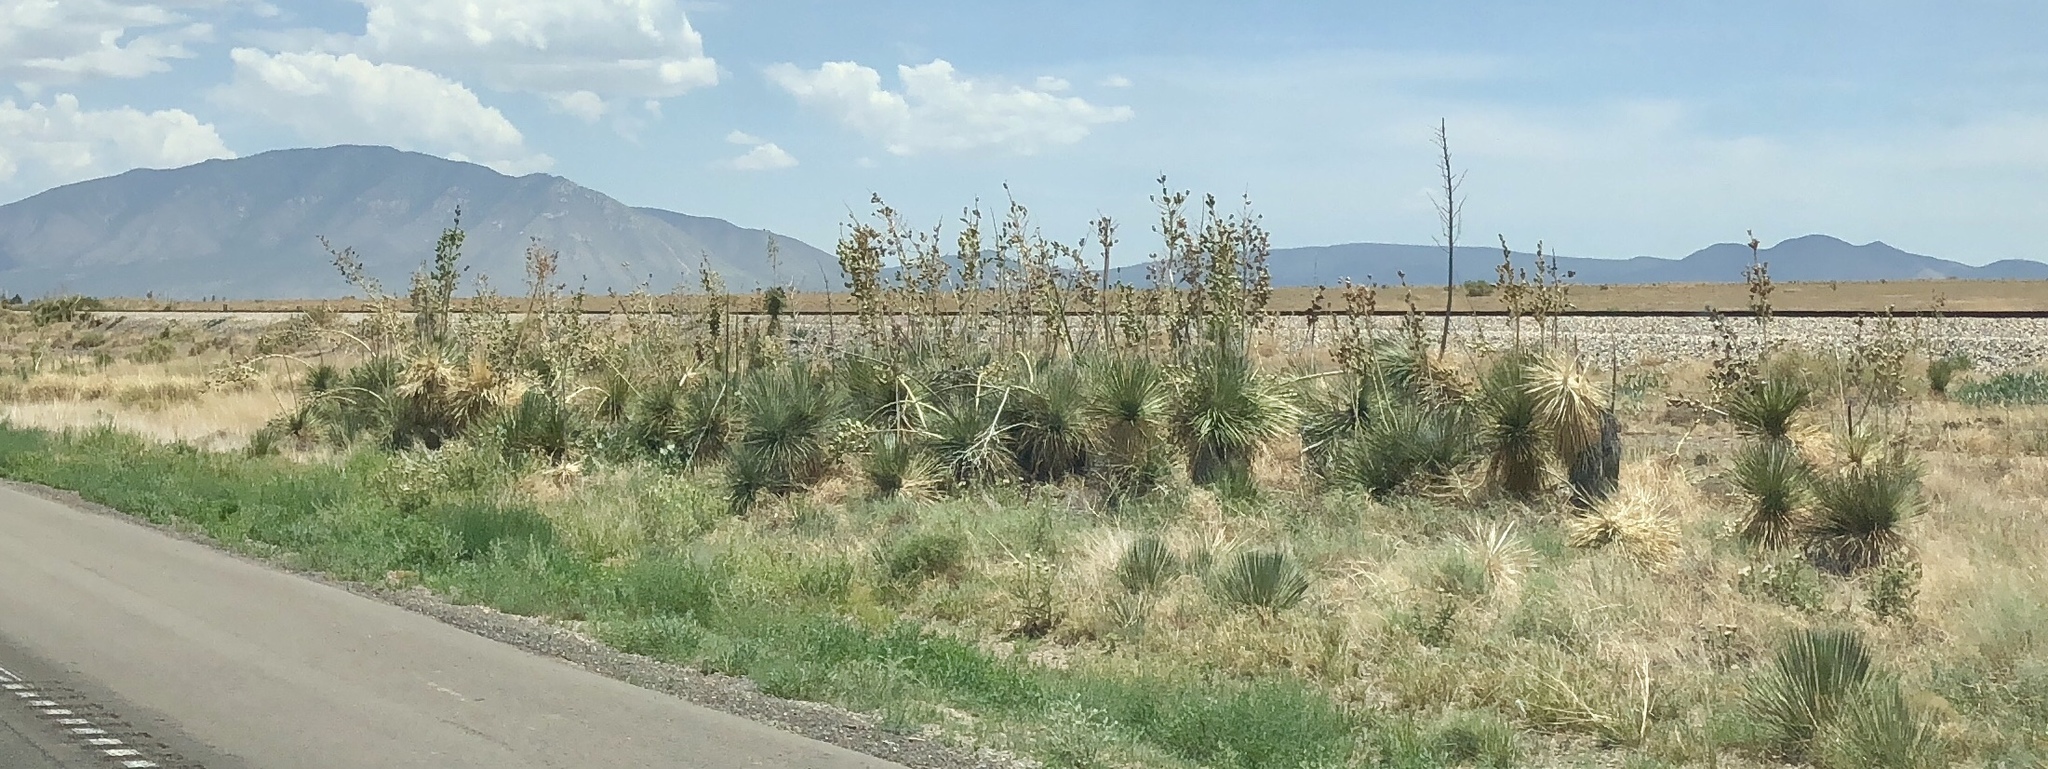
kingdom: Plantae
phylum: Tracheophyta
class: Liliopsida
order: Asparagales
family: Asparagaceae
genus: Yucca
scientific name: Yucca elata
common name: Palmella
